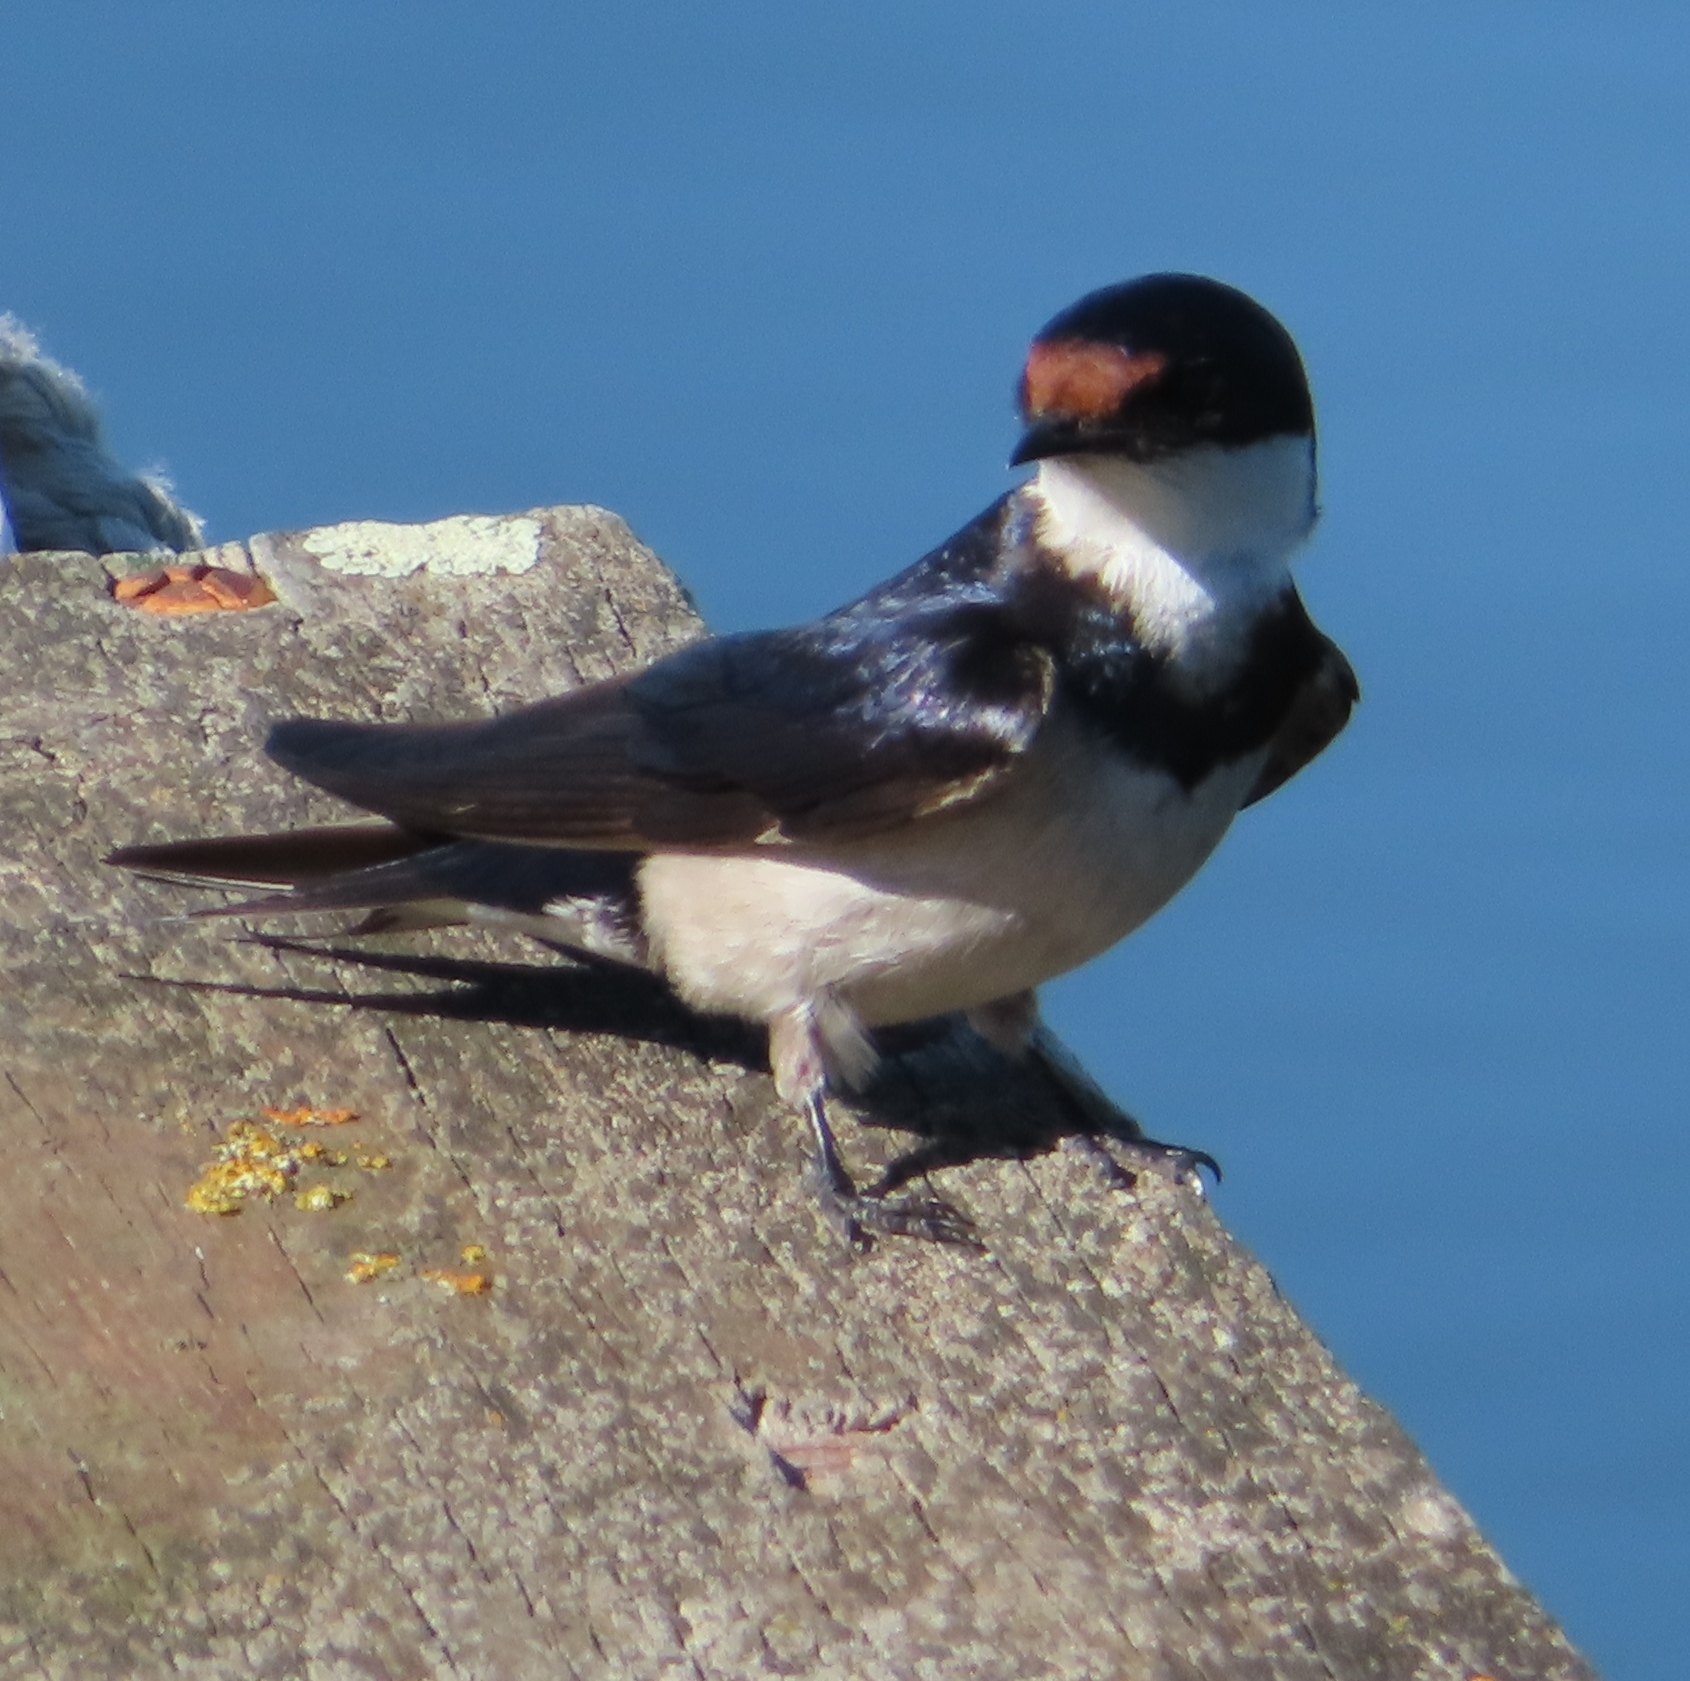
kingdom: Animalia
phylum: Chordata
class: Aves
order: Passeriformes
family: Hirundinidae
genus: Hirundo
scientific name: Hirundo albigularis
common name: White-throated swallow
